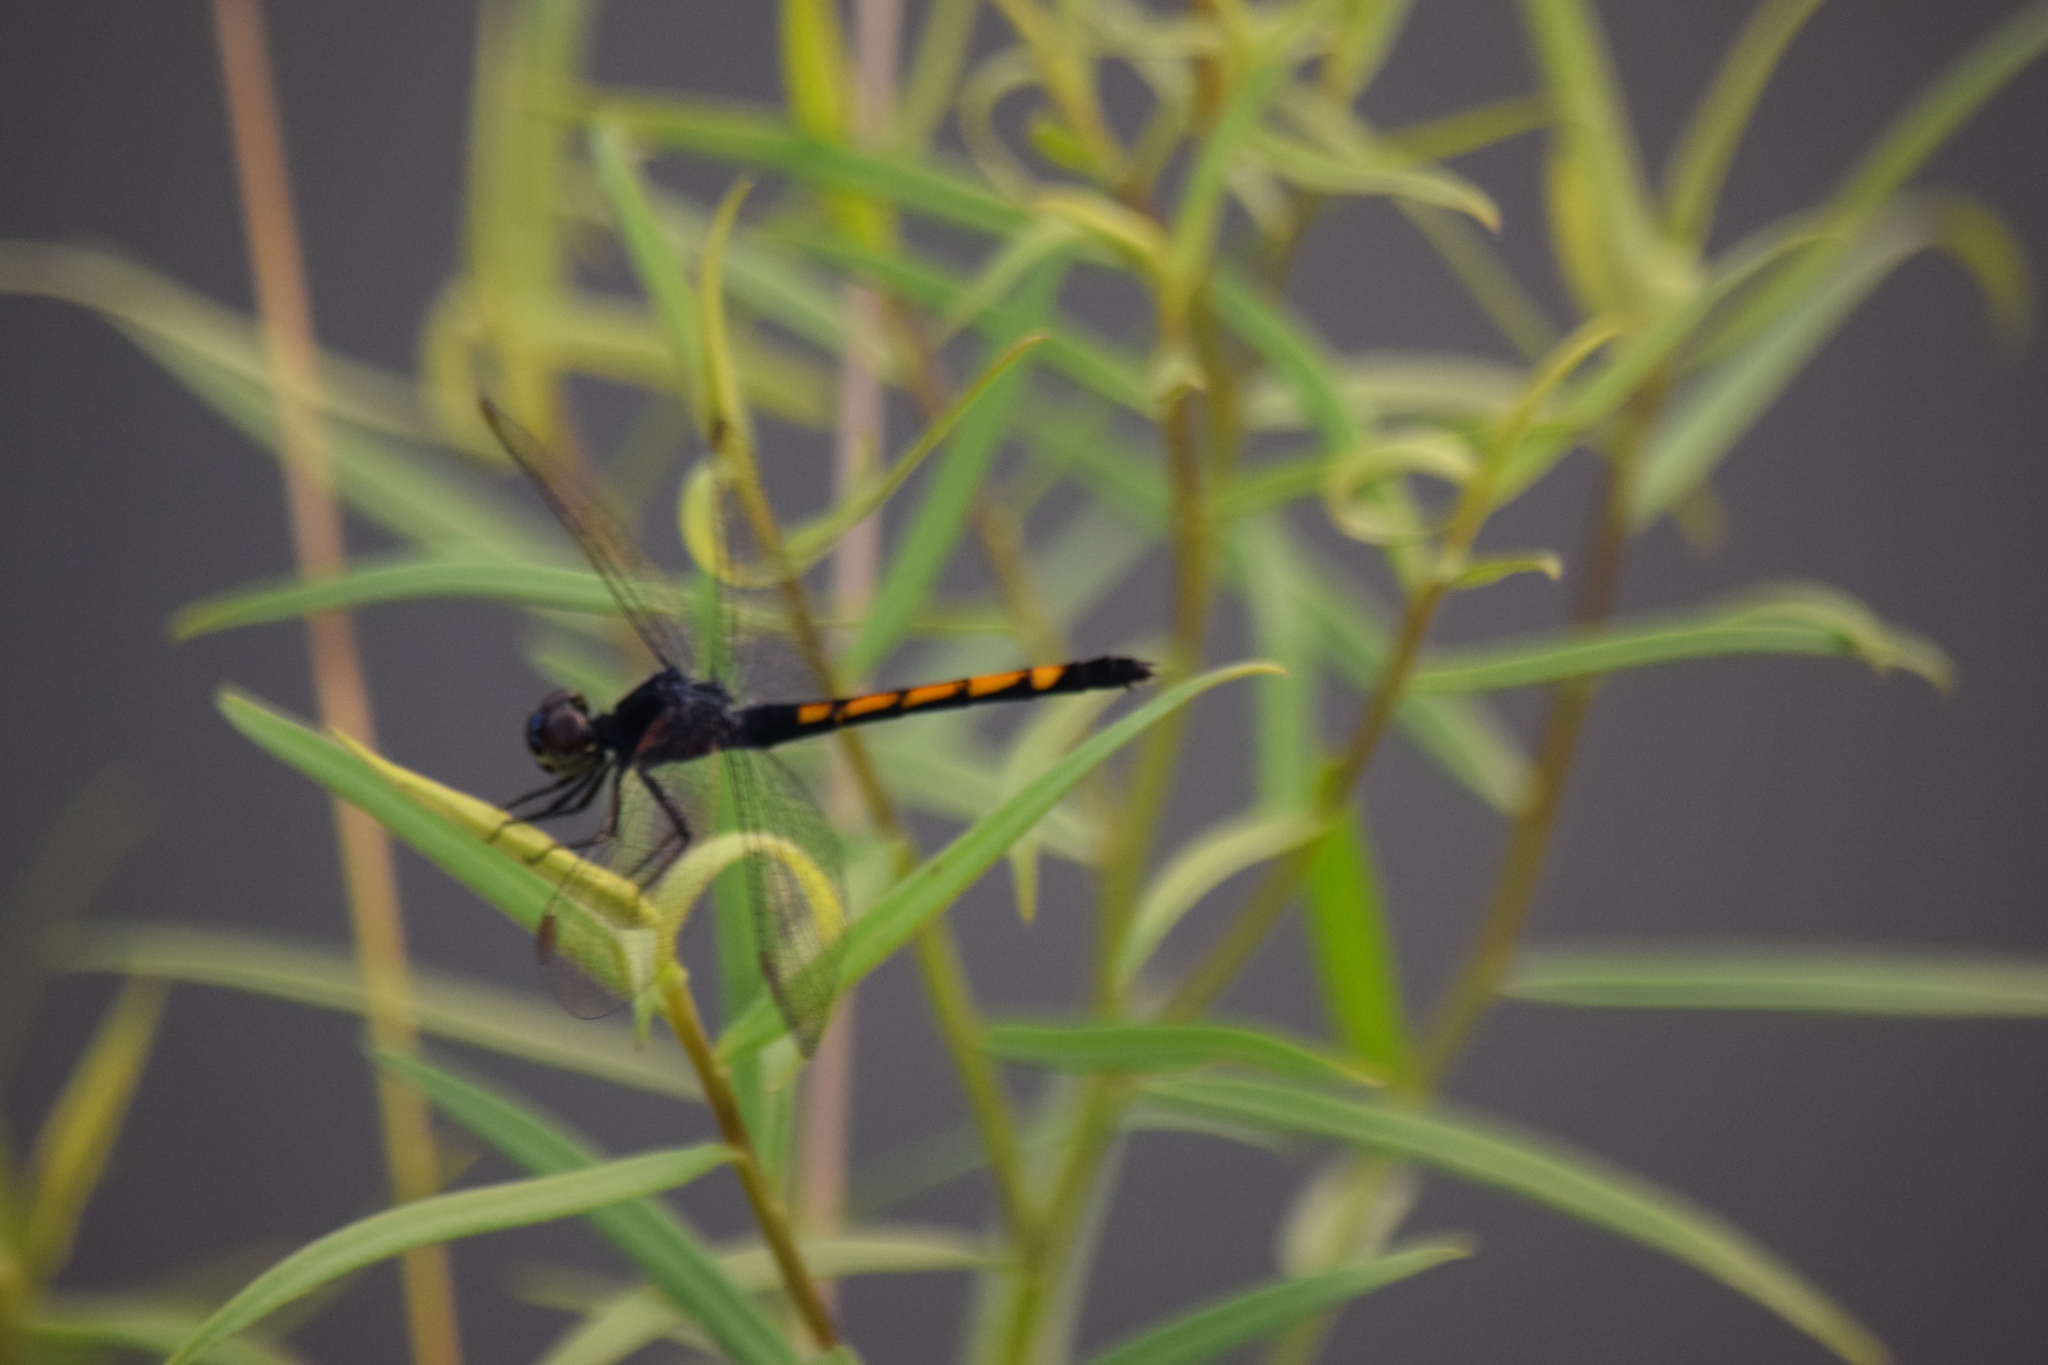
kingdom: Animalia
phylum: Arthropoda
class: Insecta
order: Odonata
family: Libellulidae
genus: Erythrodiplax
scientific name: Erythrodiplax berenice
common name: Seaside dragonlet
